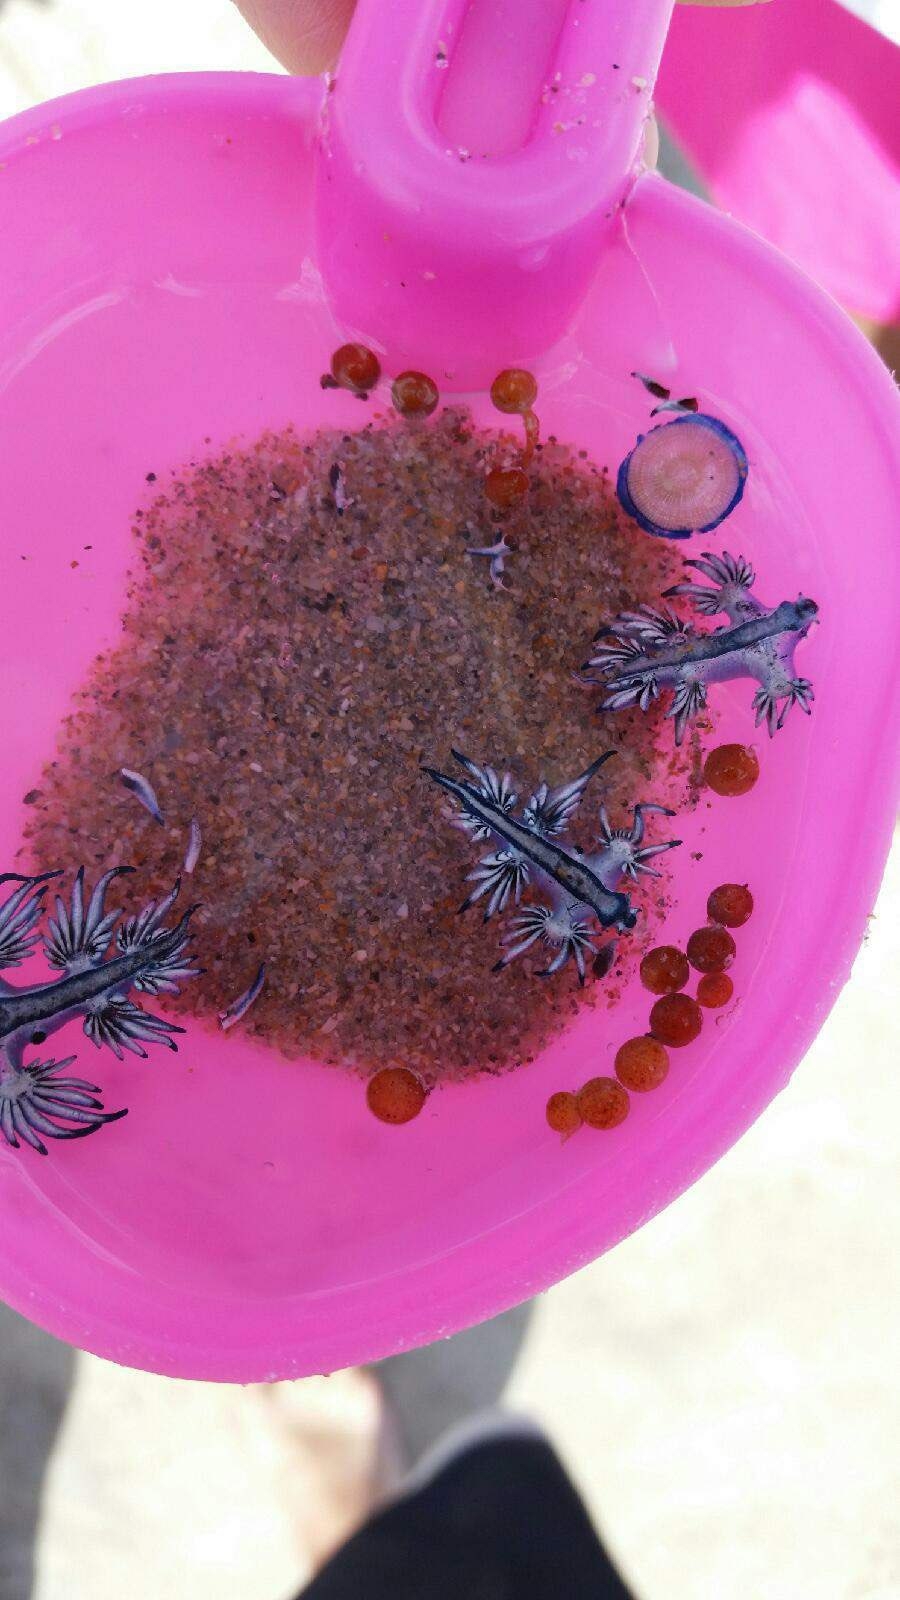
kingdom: Animalia
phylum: Mollusca
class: Gastropoda
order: Nudibranchia
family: Glaucidae
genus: Glaucus
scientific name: Glaucus atlanticus
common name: Purple ocean slug
